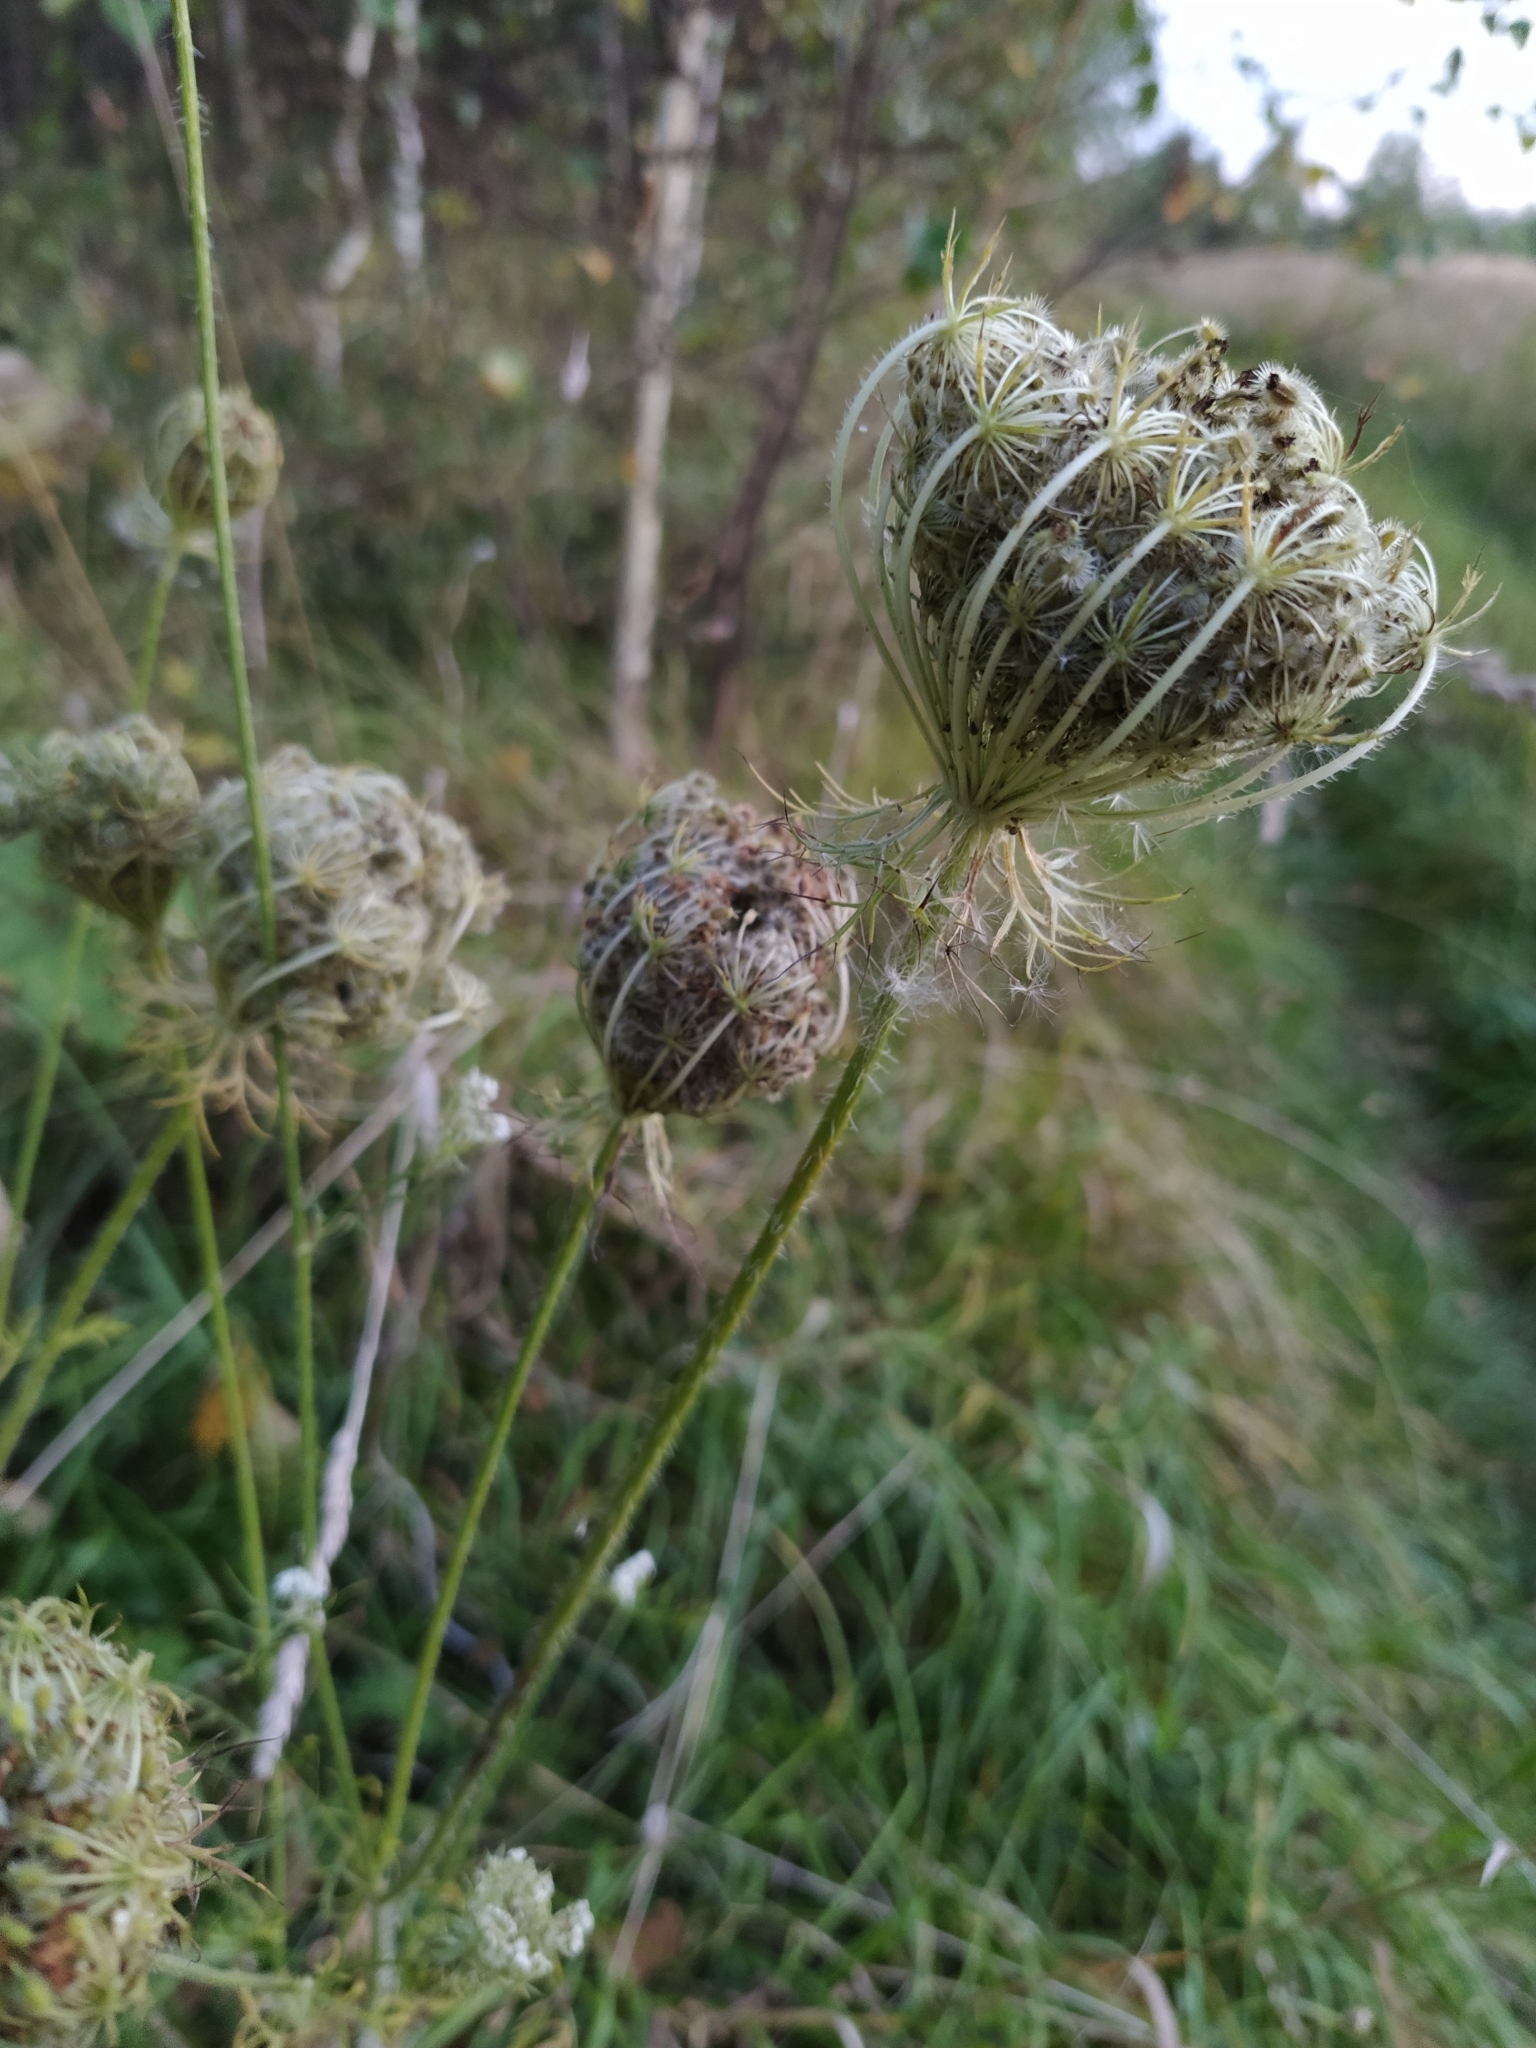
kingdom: Plantae
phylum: Tracheophyta
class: Magnoliopsida
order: Apiales
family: Apiaceae
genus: Daucus
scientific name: Daucus carota
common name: Wild carrot
